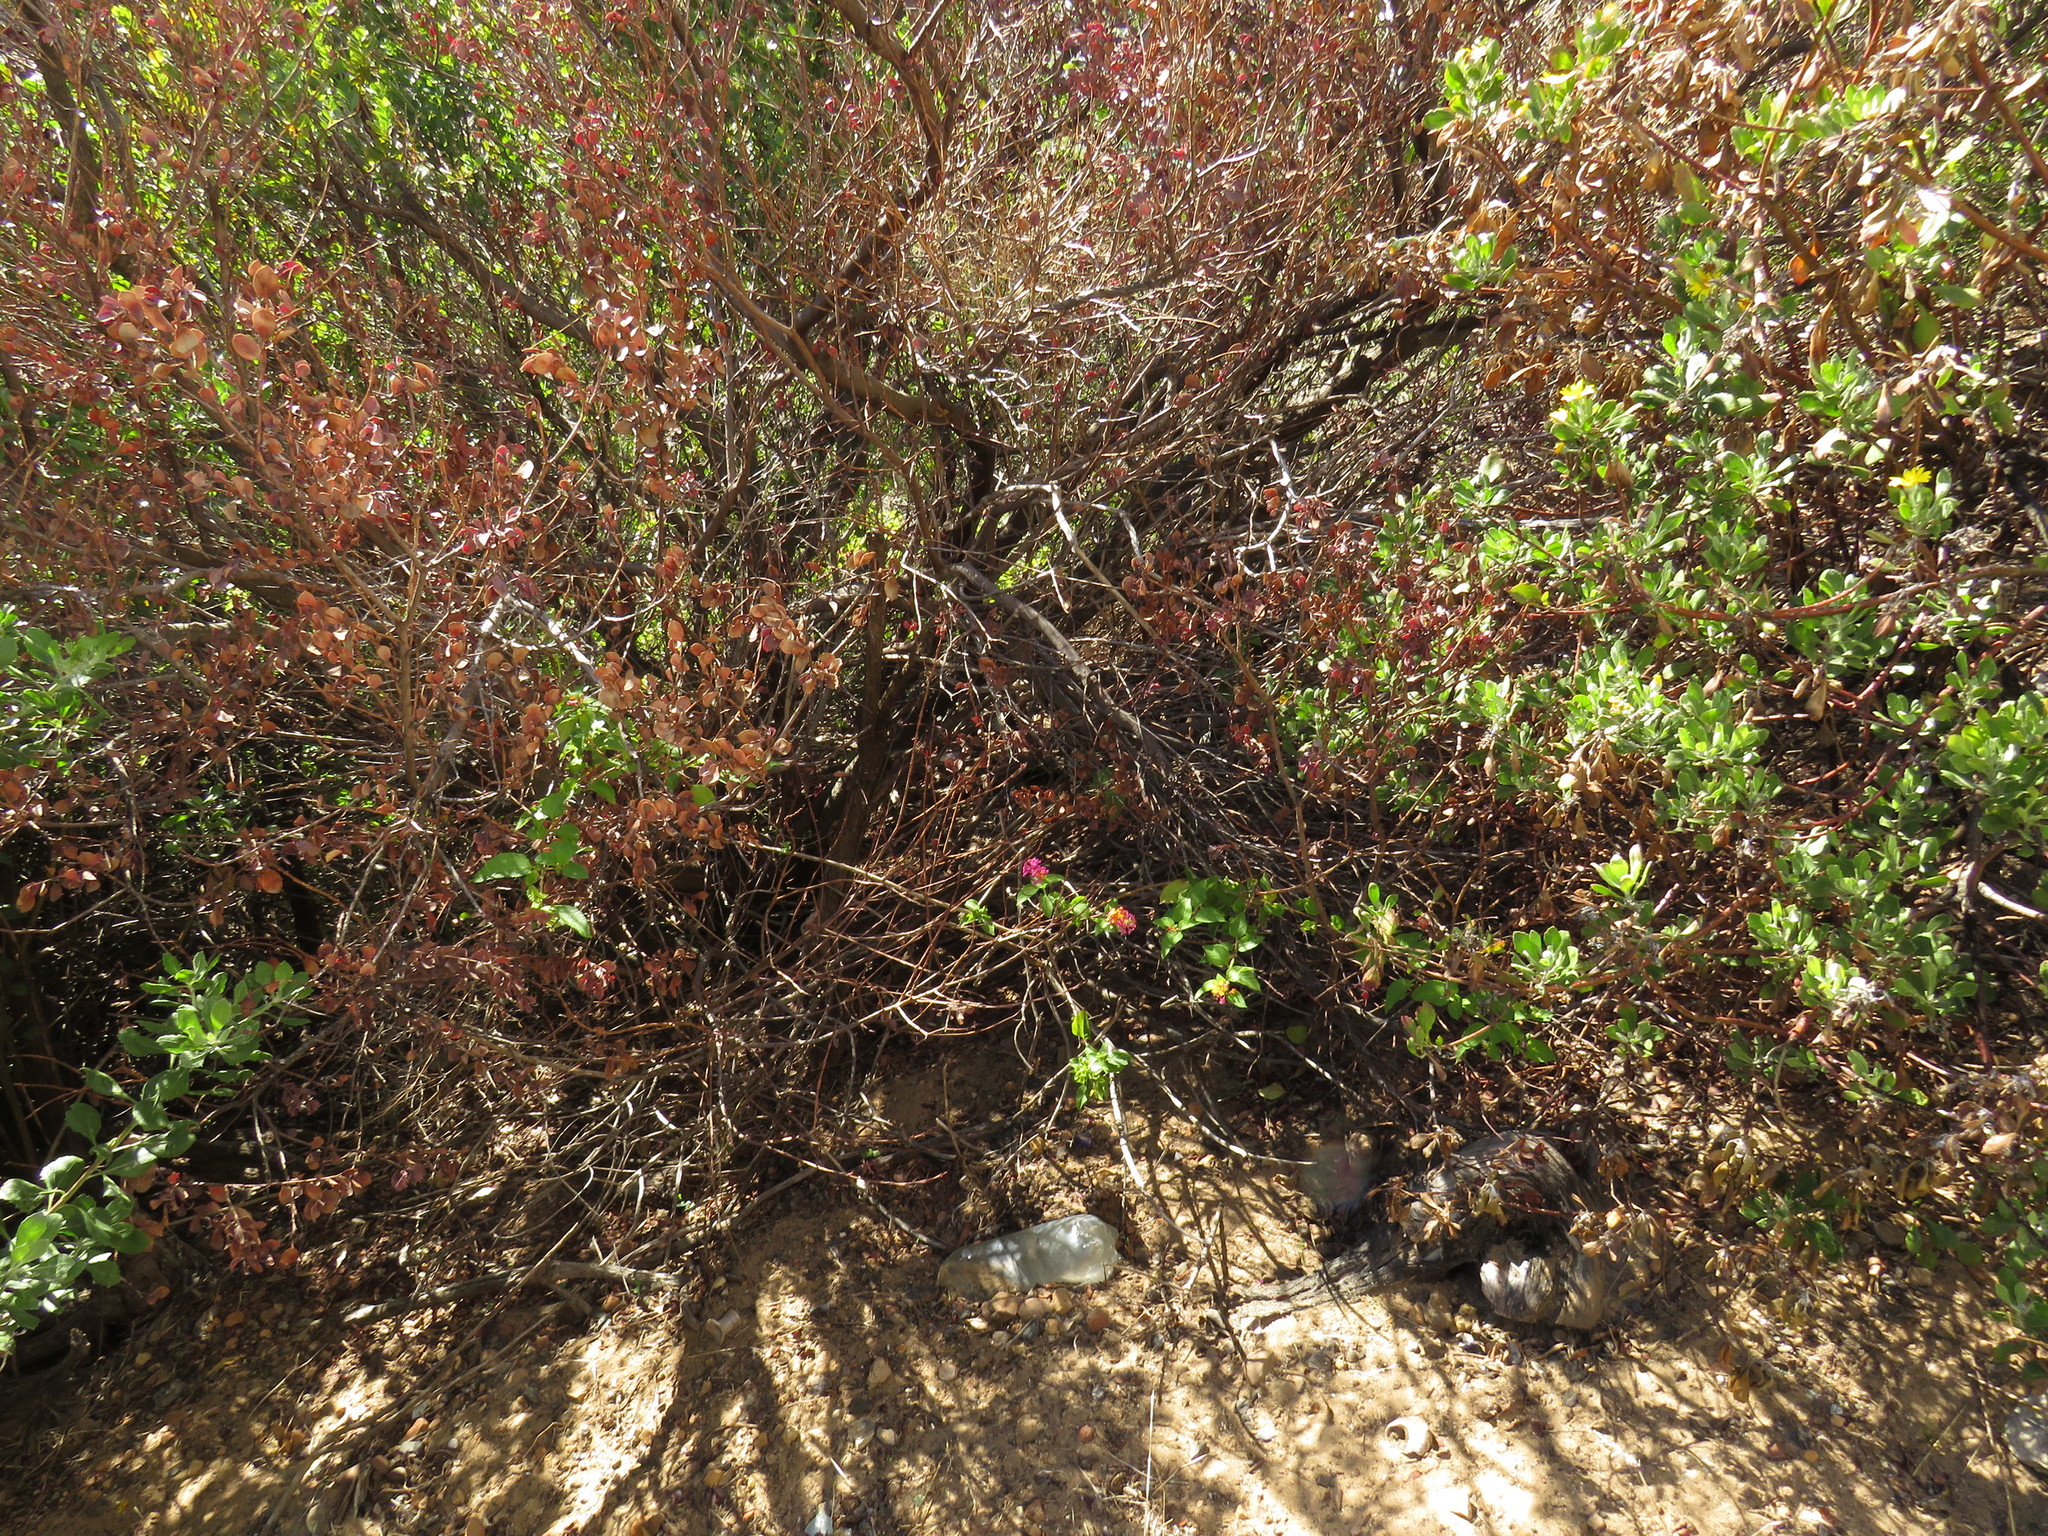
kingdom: Plantae
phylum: Tracheophyta
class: Magnoliopsida
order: Lamiales
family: Verbenaceae
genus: Lantana
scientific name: Lantana camara
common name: Lantana
